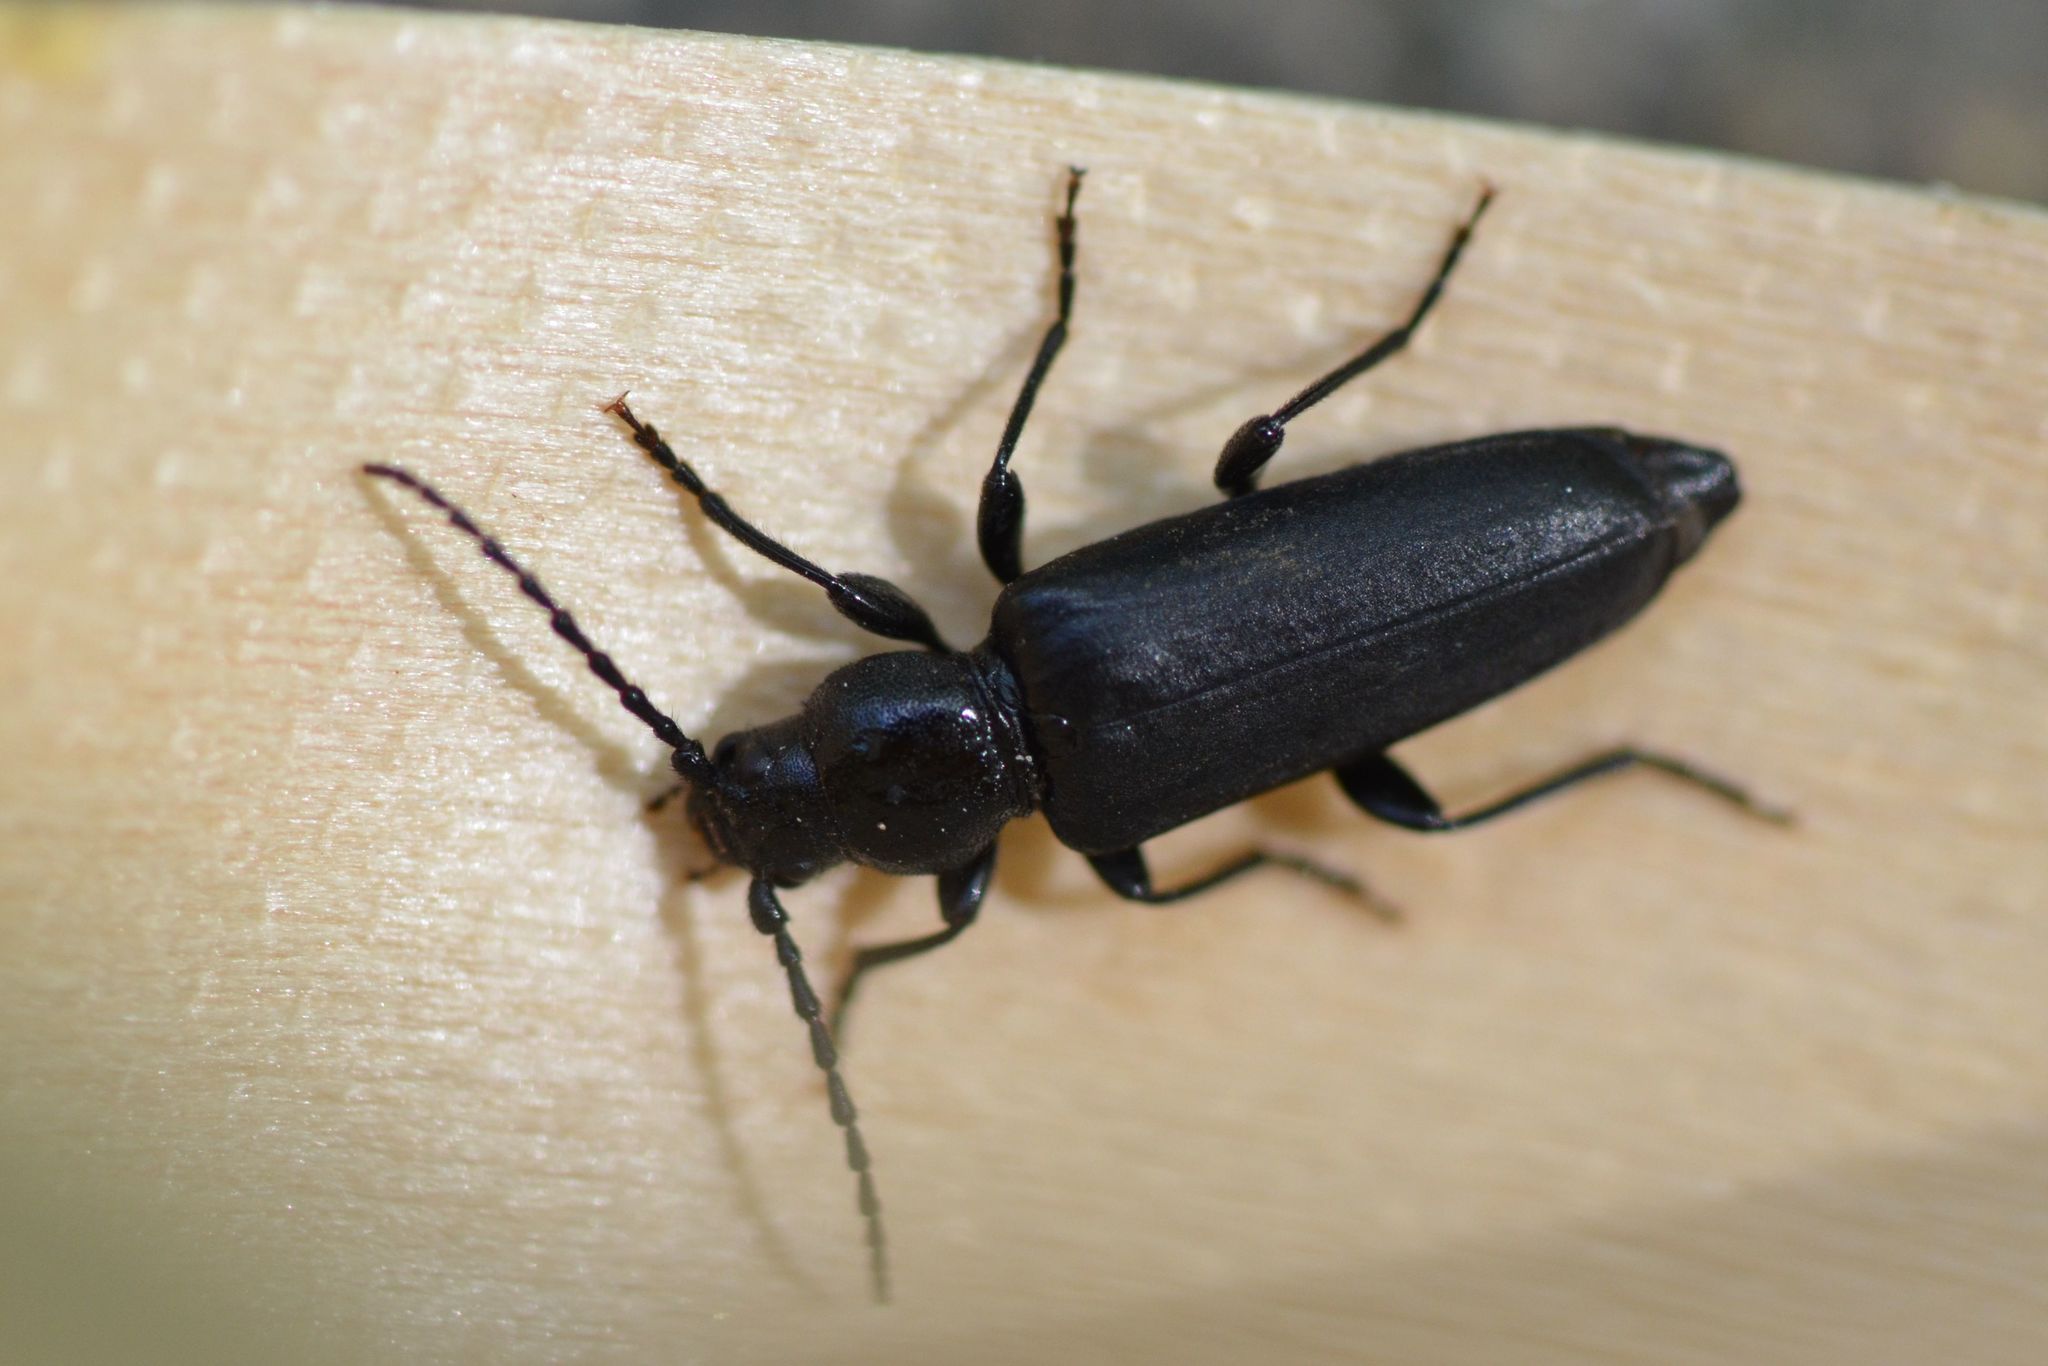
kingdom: Animalia
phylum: Arthropoda
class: Insecta
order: Coleoptera
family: Cerambycidae
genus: Tetropium
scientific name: Tetropium castaneum
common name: Long-horned beetle
